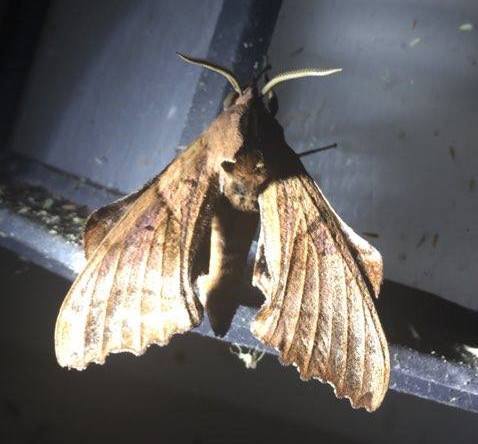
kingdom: Animalia
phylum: Arthropoda
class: Insecta
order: Lepidoptera
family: Sphingidae
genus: Paonias
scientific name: Paonias excaecata
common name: Blind-eyed sphinx
